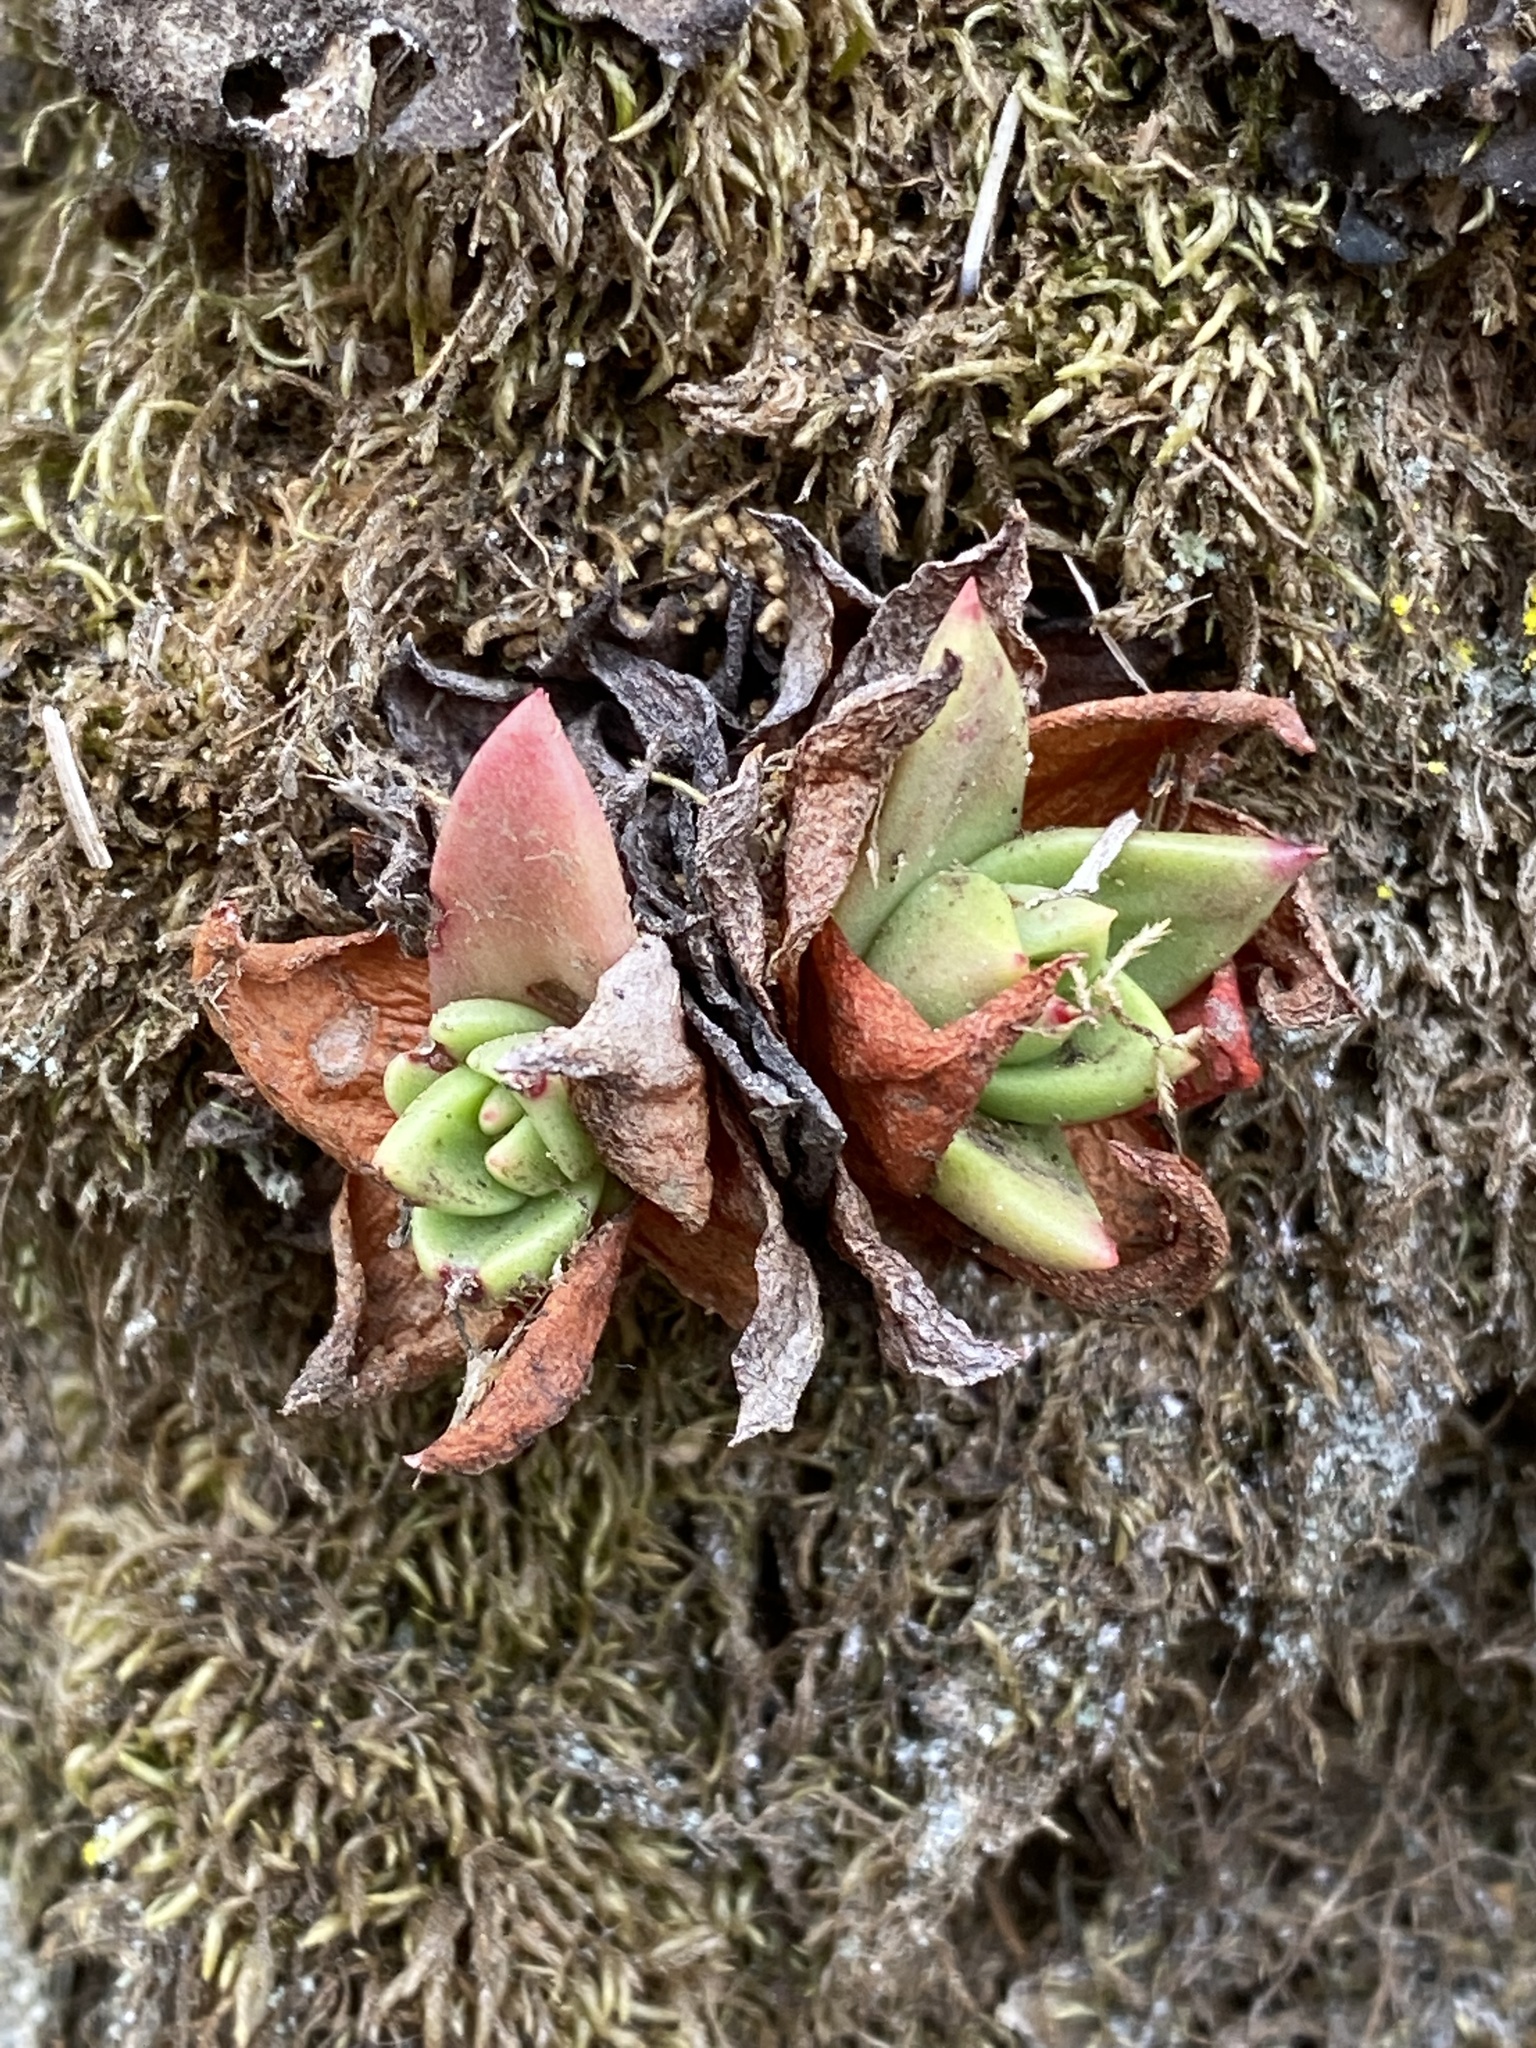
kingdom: Plantae
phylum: Tracheophyta
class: Magnoliopsida
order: Saxifragales
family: Crassulaceae
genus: Dudleya
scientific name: Dudleya farinosa
